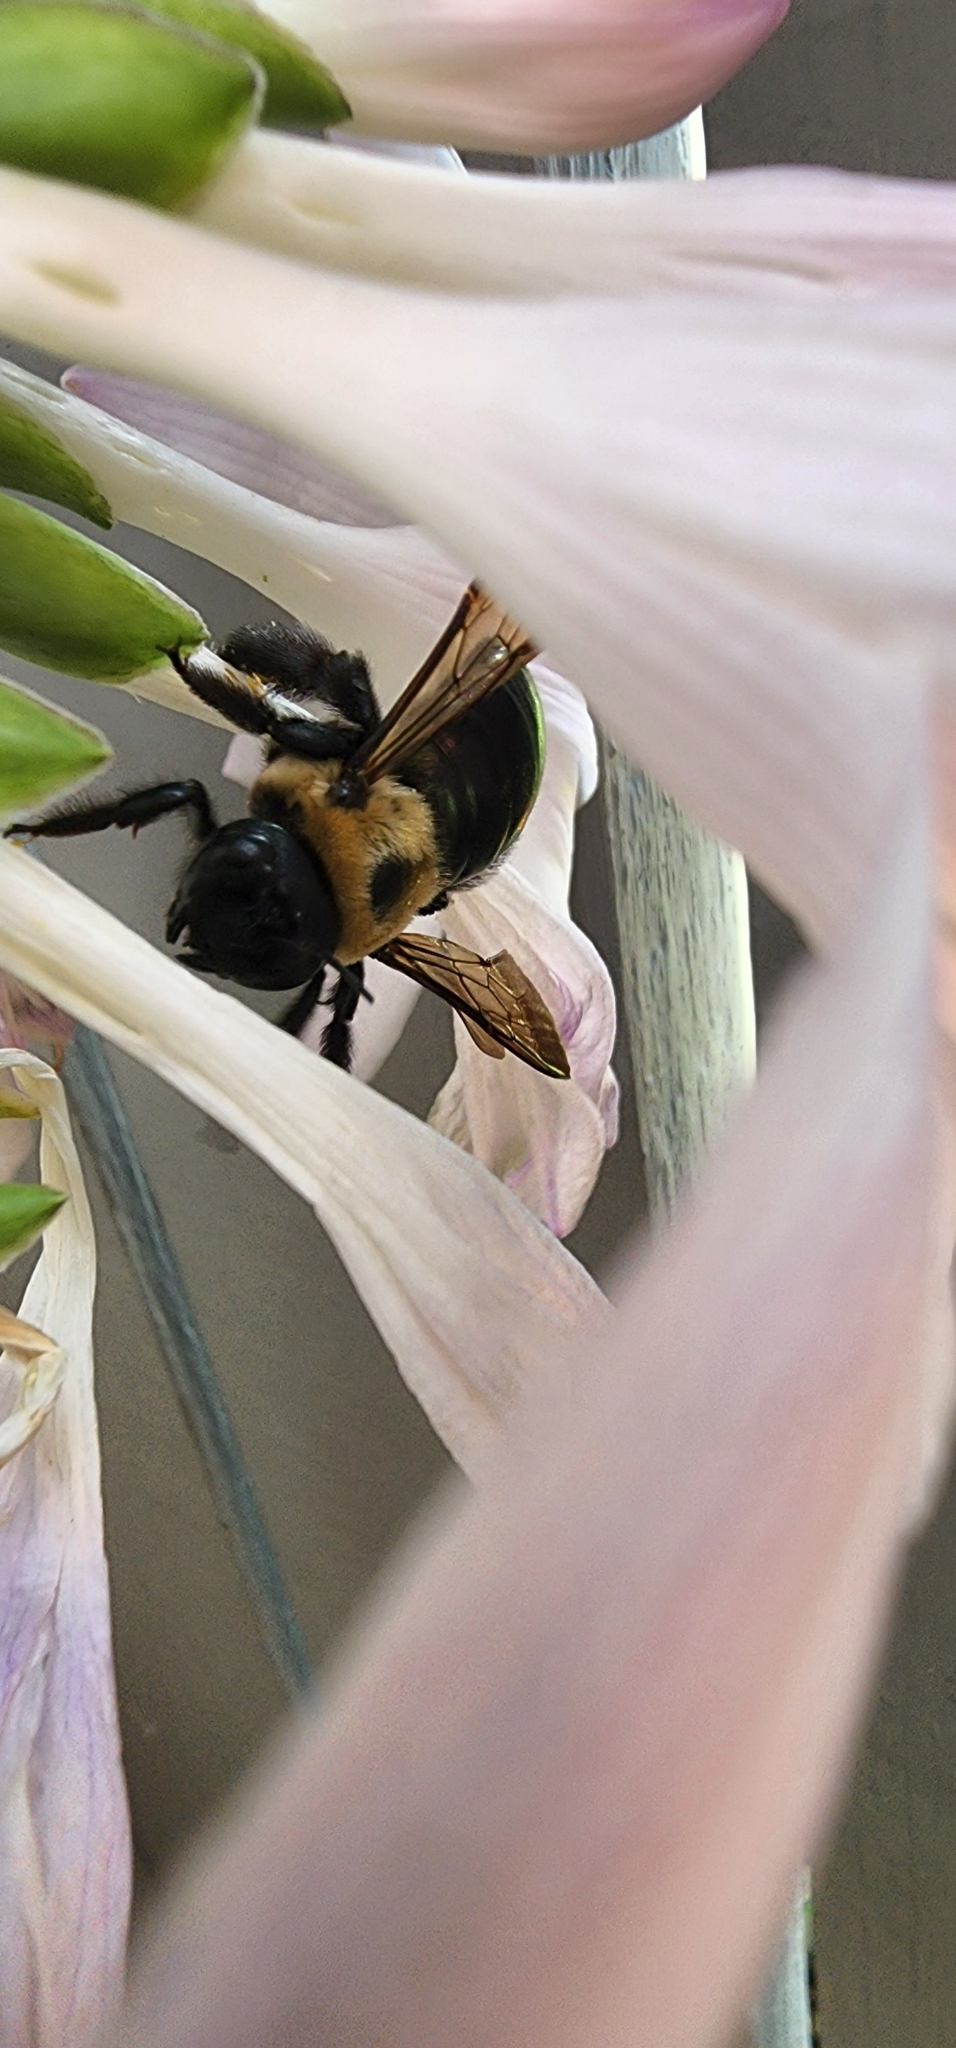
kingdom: Animalia
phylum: Arthropoda
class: Insecta
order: Hymenoptera
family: Apidae
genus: Xylocopa
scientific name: Xylocopa virginica
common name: Carpenter bee
